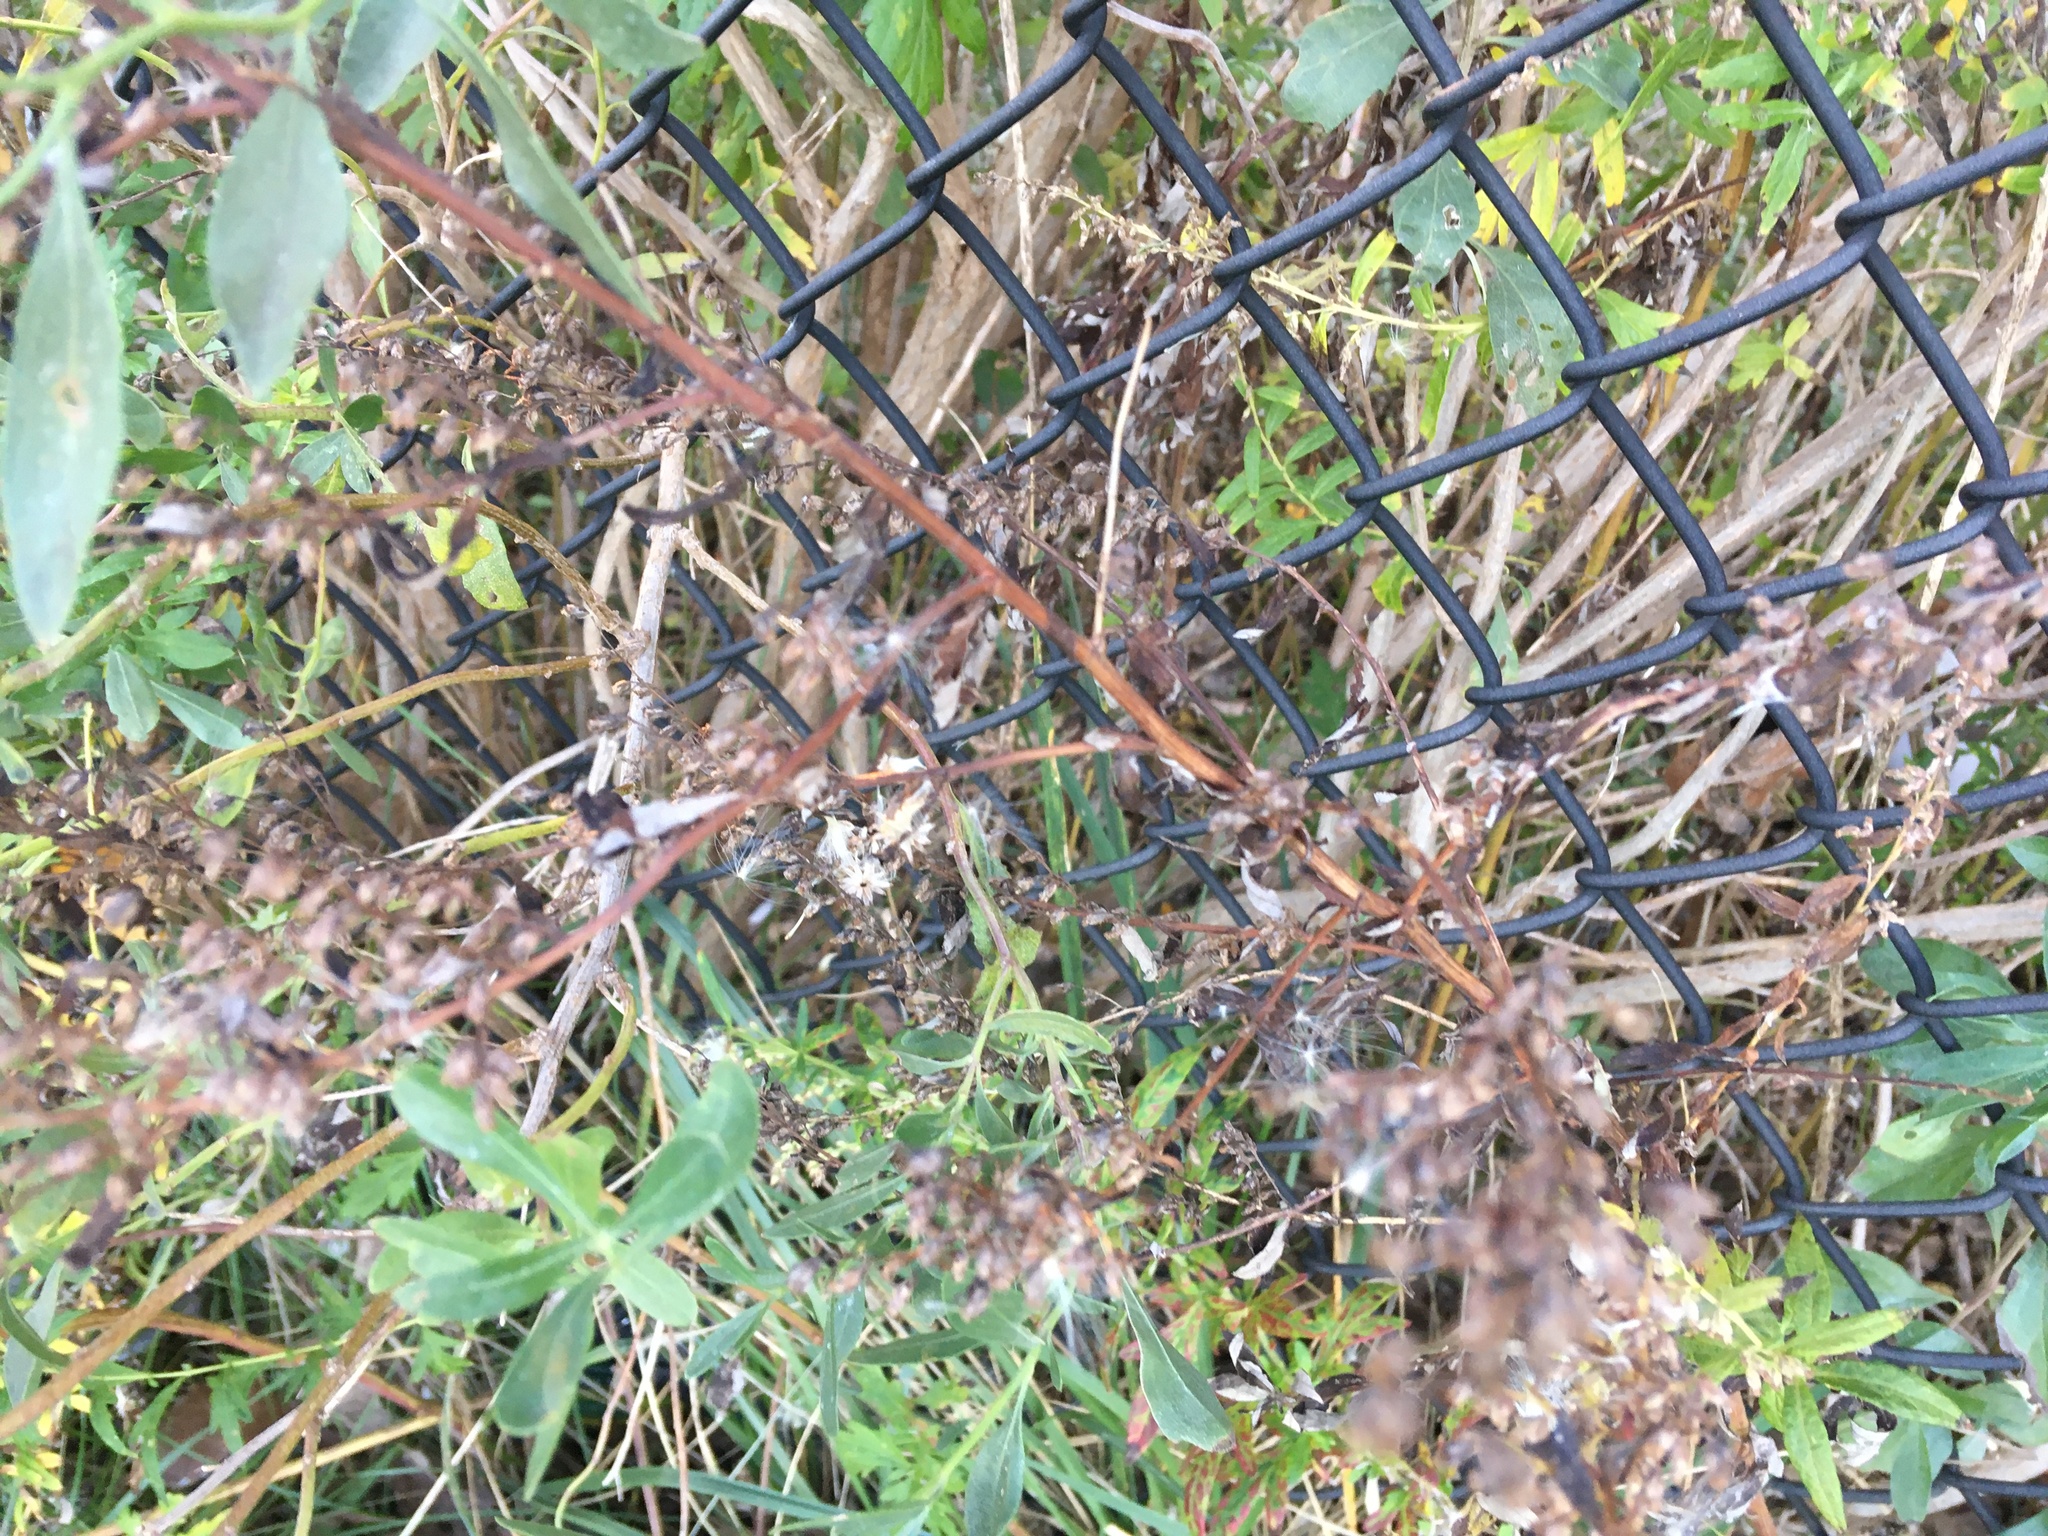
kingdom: Plantae
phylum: Tracheophyta
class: Magnoliopsida
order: Asterales
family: Asteraceae
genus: Artemisia
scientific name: Artemisia vulgaris
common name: Mugwort
